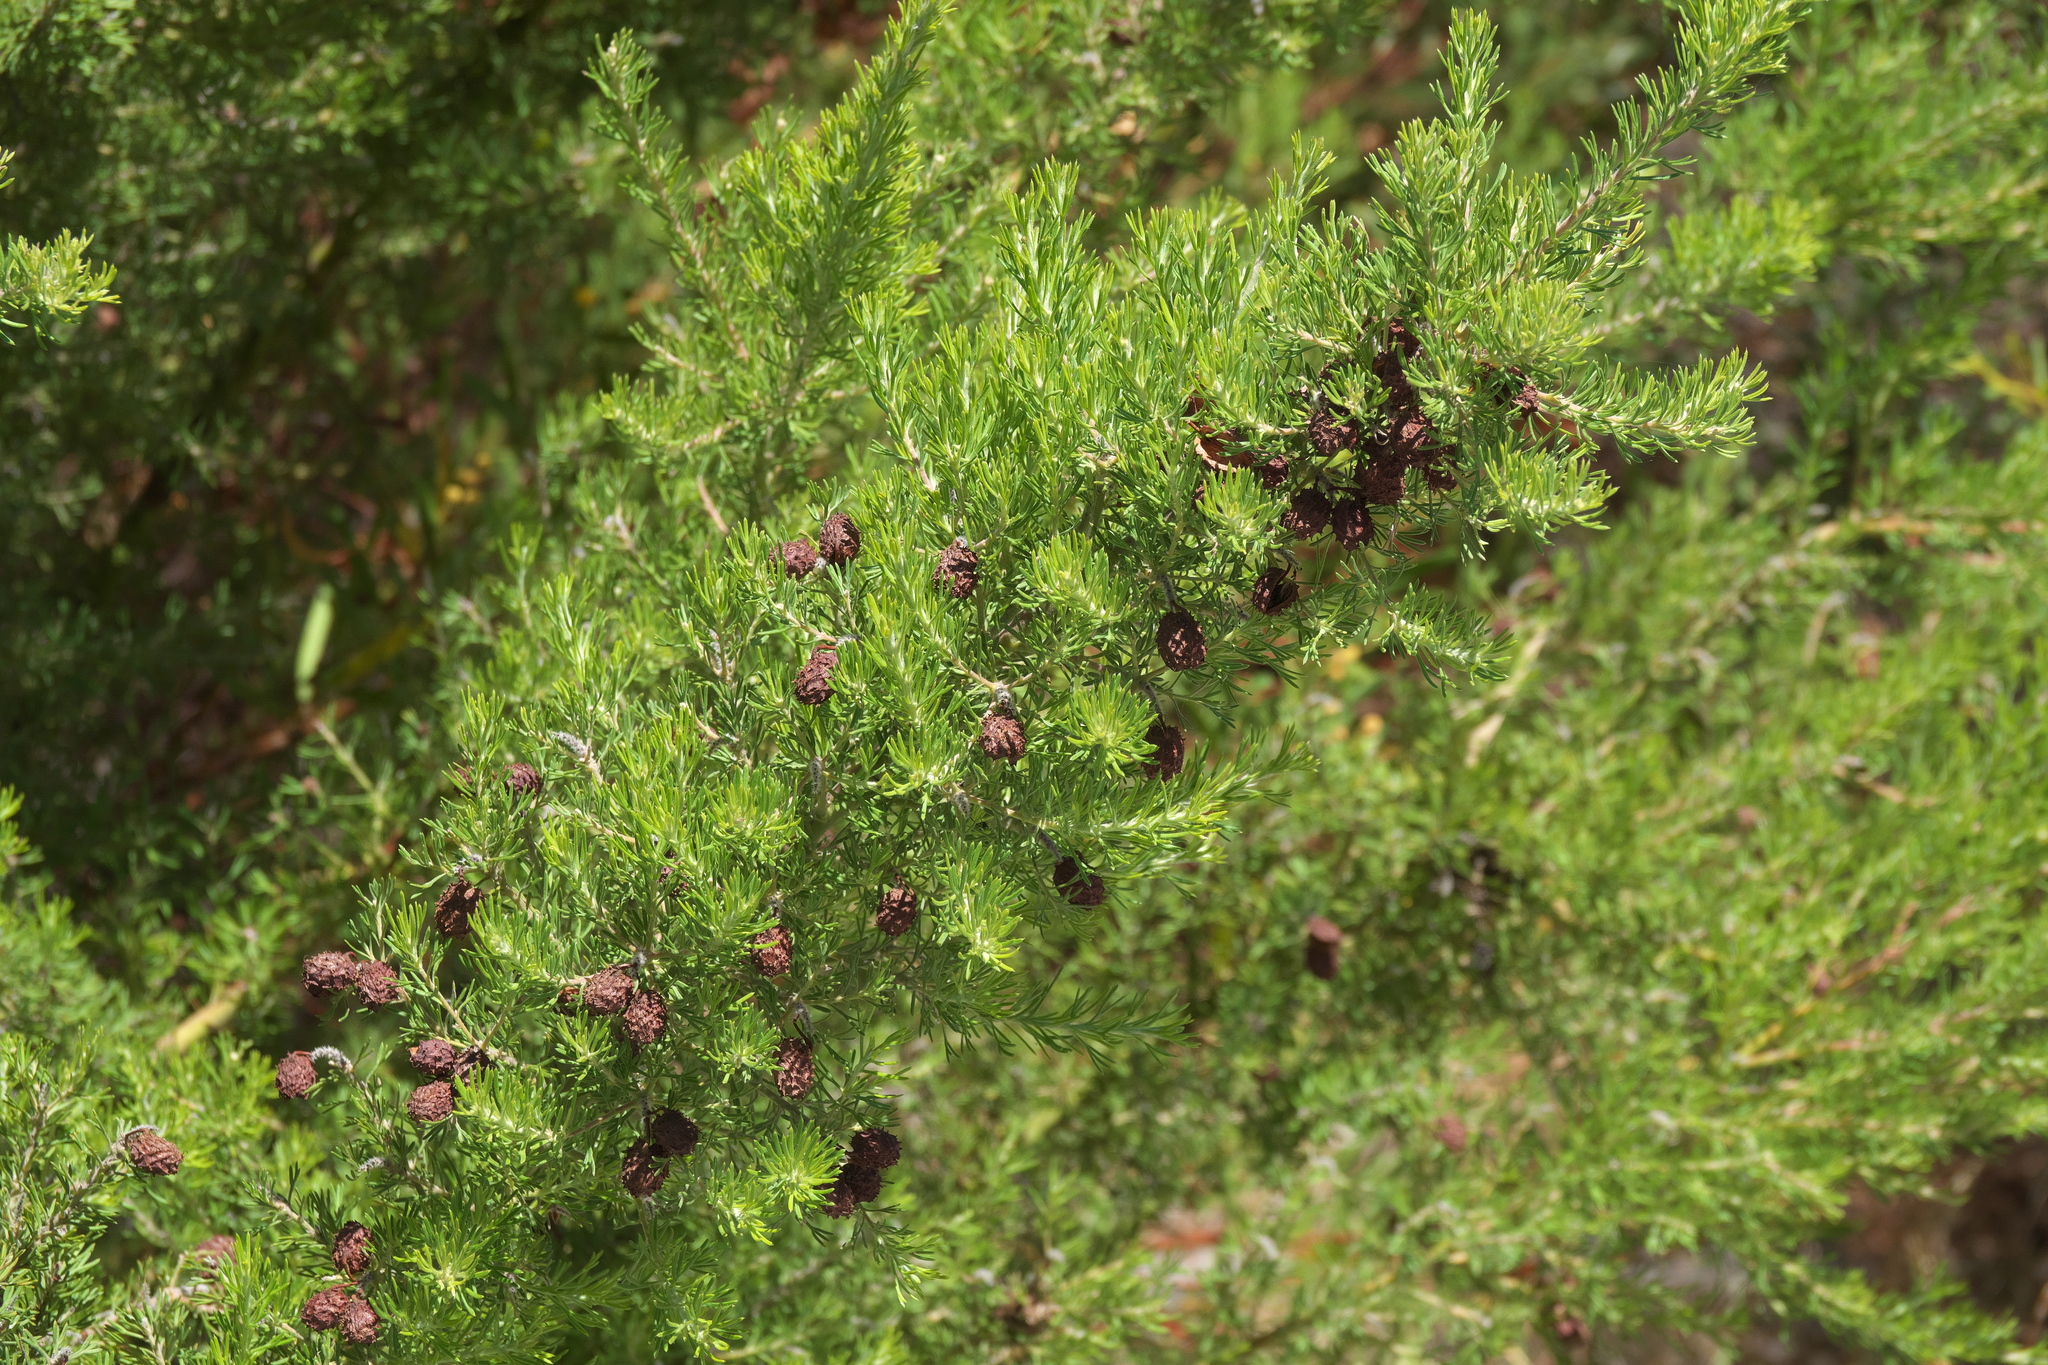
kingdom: Plantae
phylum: Tracheophyta
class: Magnoliopsida
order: Proteales
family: Proteaceae
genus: Grevillea
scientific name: Grevillea crithmifolia
